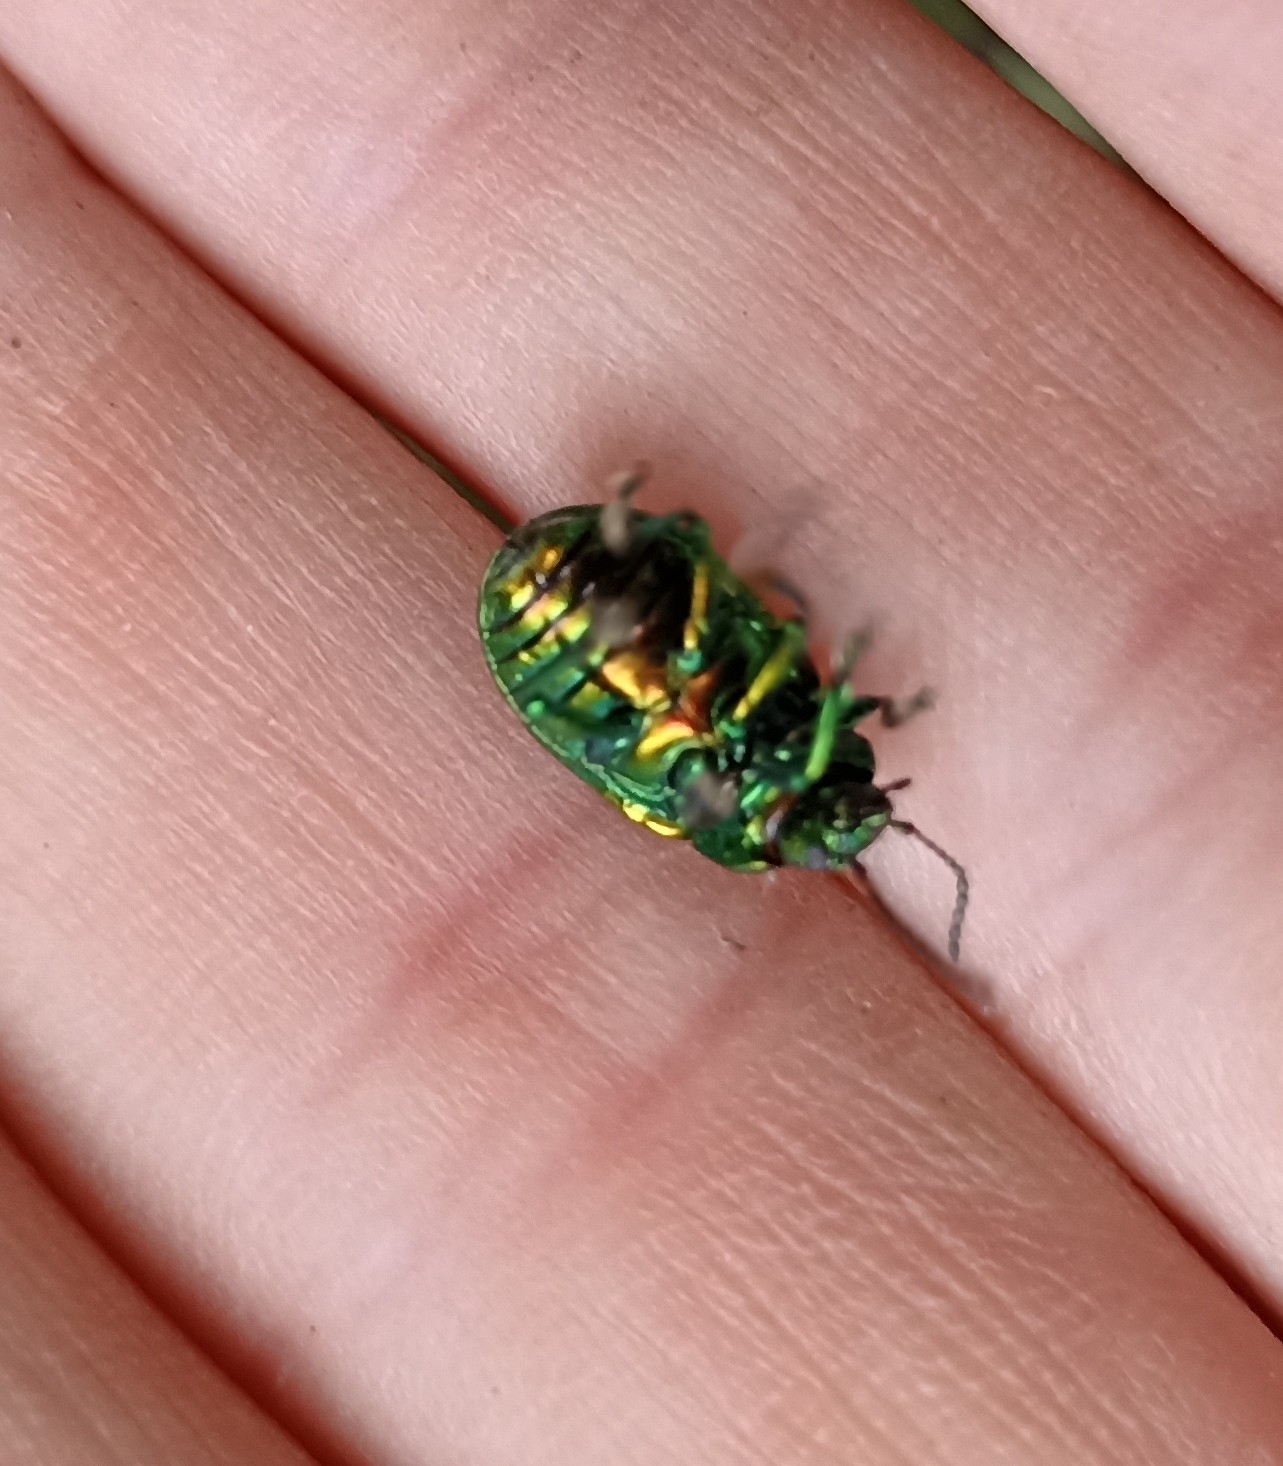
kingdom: Animalia
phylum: Arthropoda
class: Insecta
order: Coleoptera
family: Chrysomelidae
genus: Chrysolina
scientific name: Chrysolina graminis
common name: Tansey beetle
